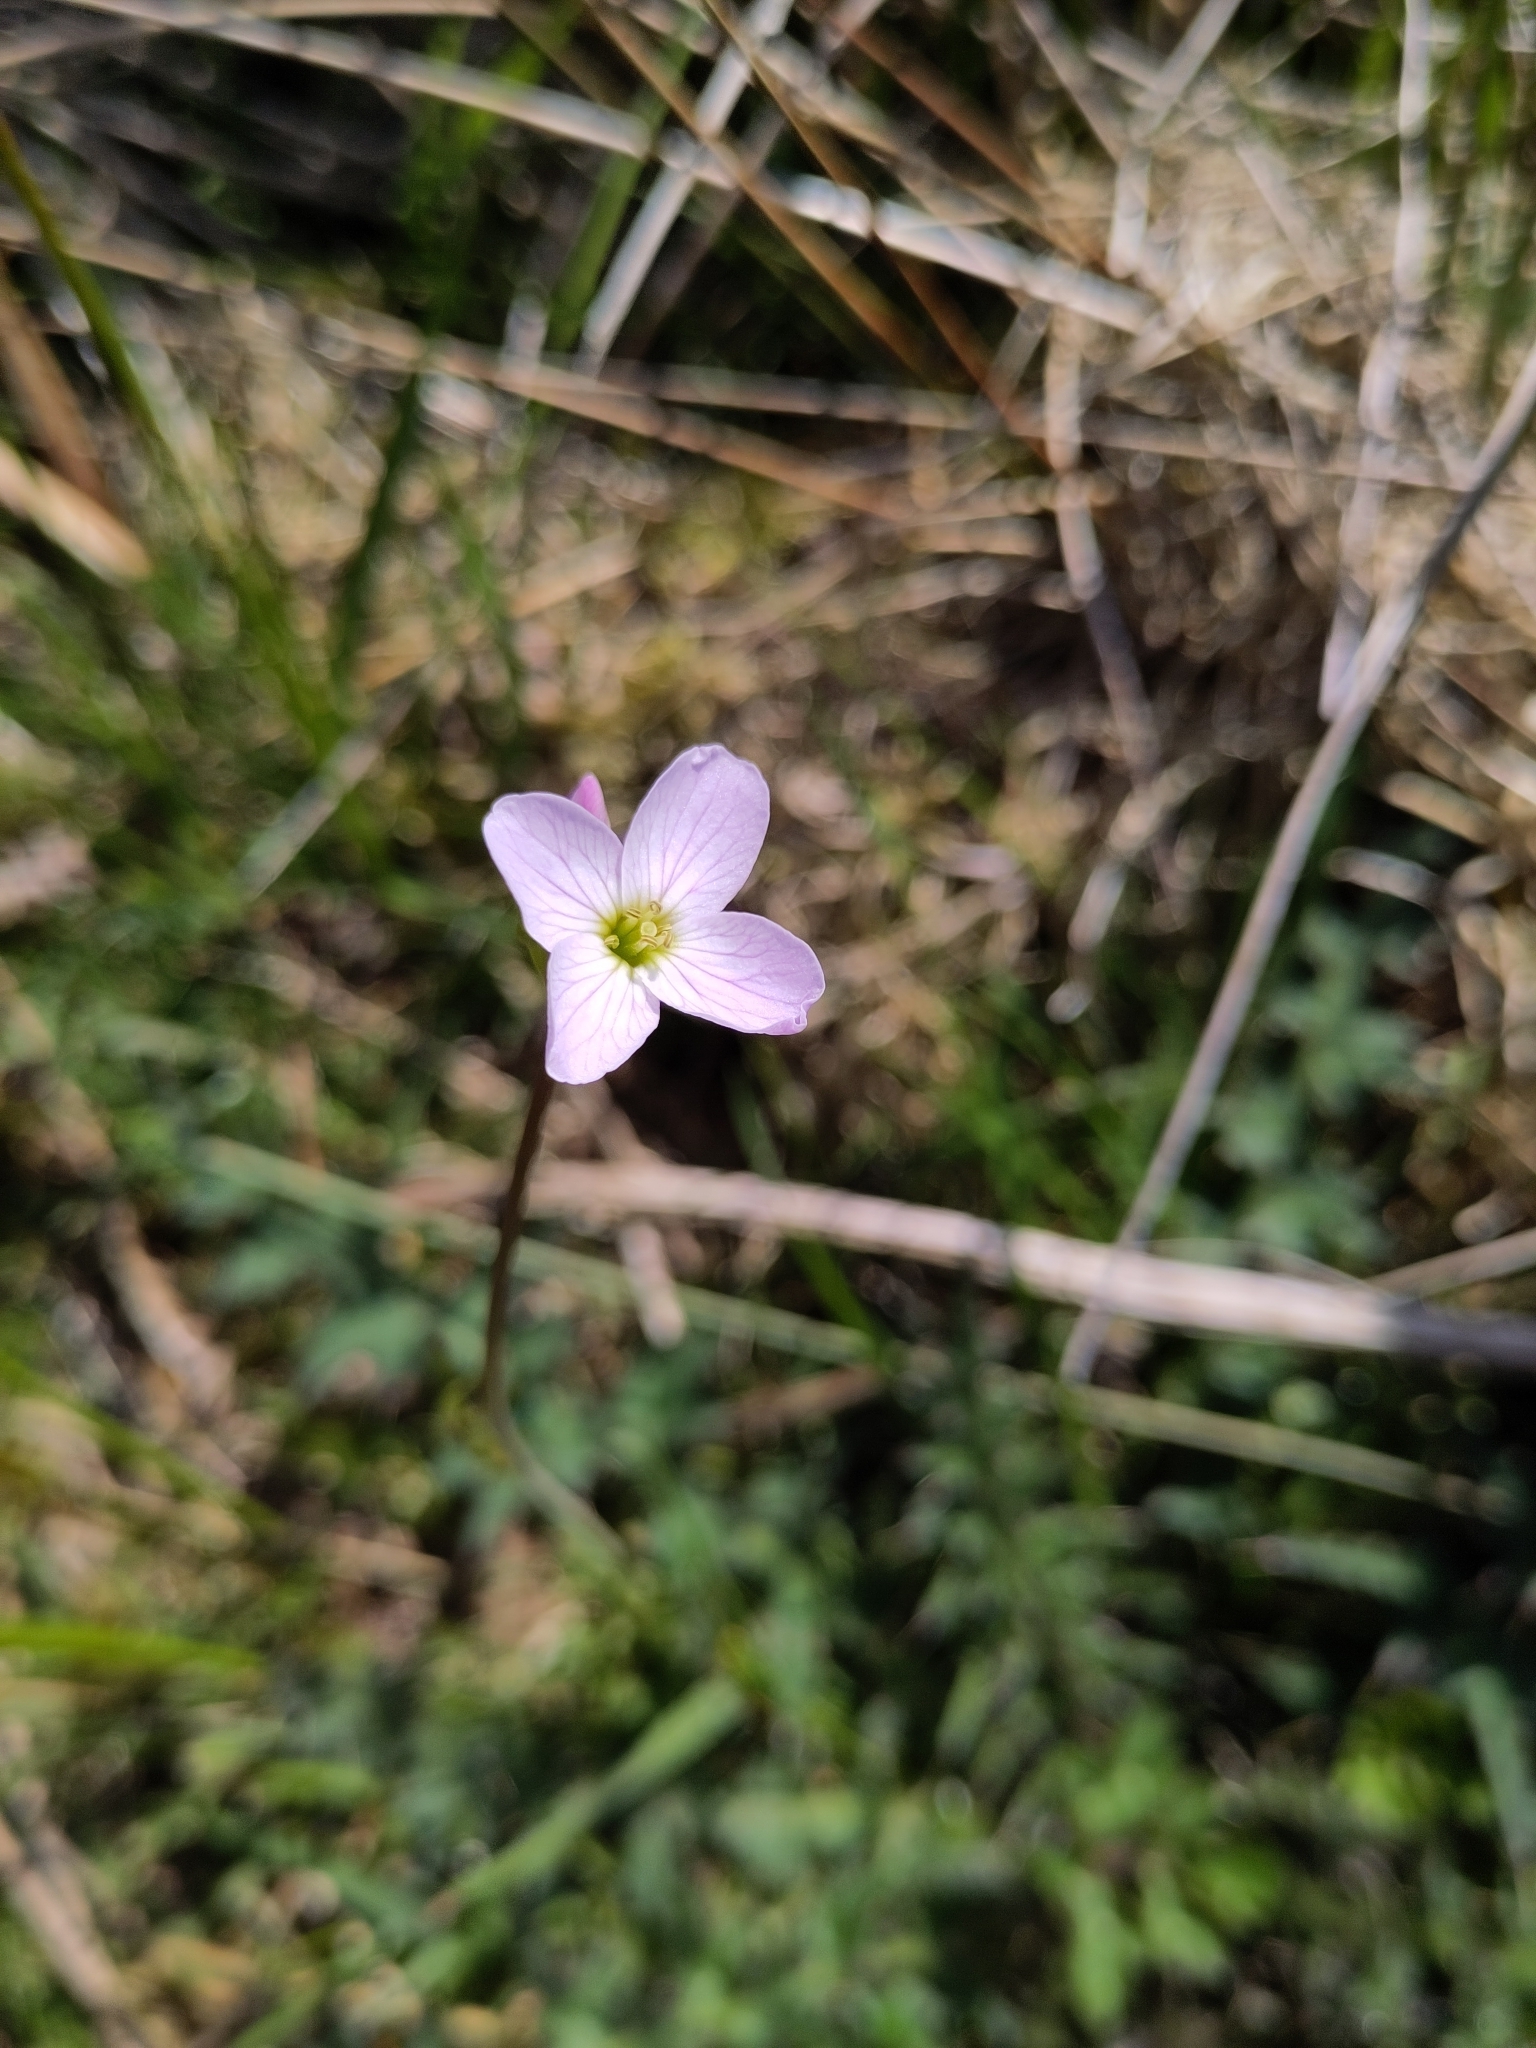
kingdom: Plantae
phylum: Tracheophyta
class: Magnoliopsida
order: Brassicales
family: Brassicaceae
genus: Cardamine
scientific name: Cardamine pratensis
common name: Cuckoo flower
